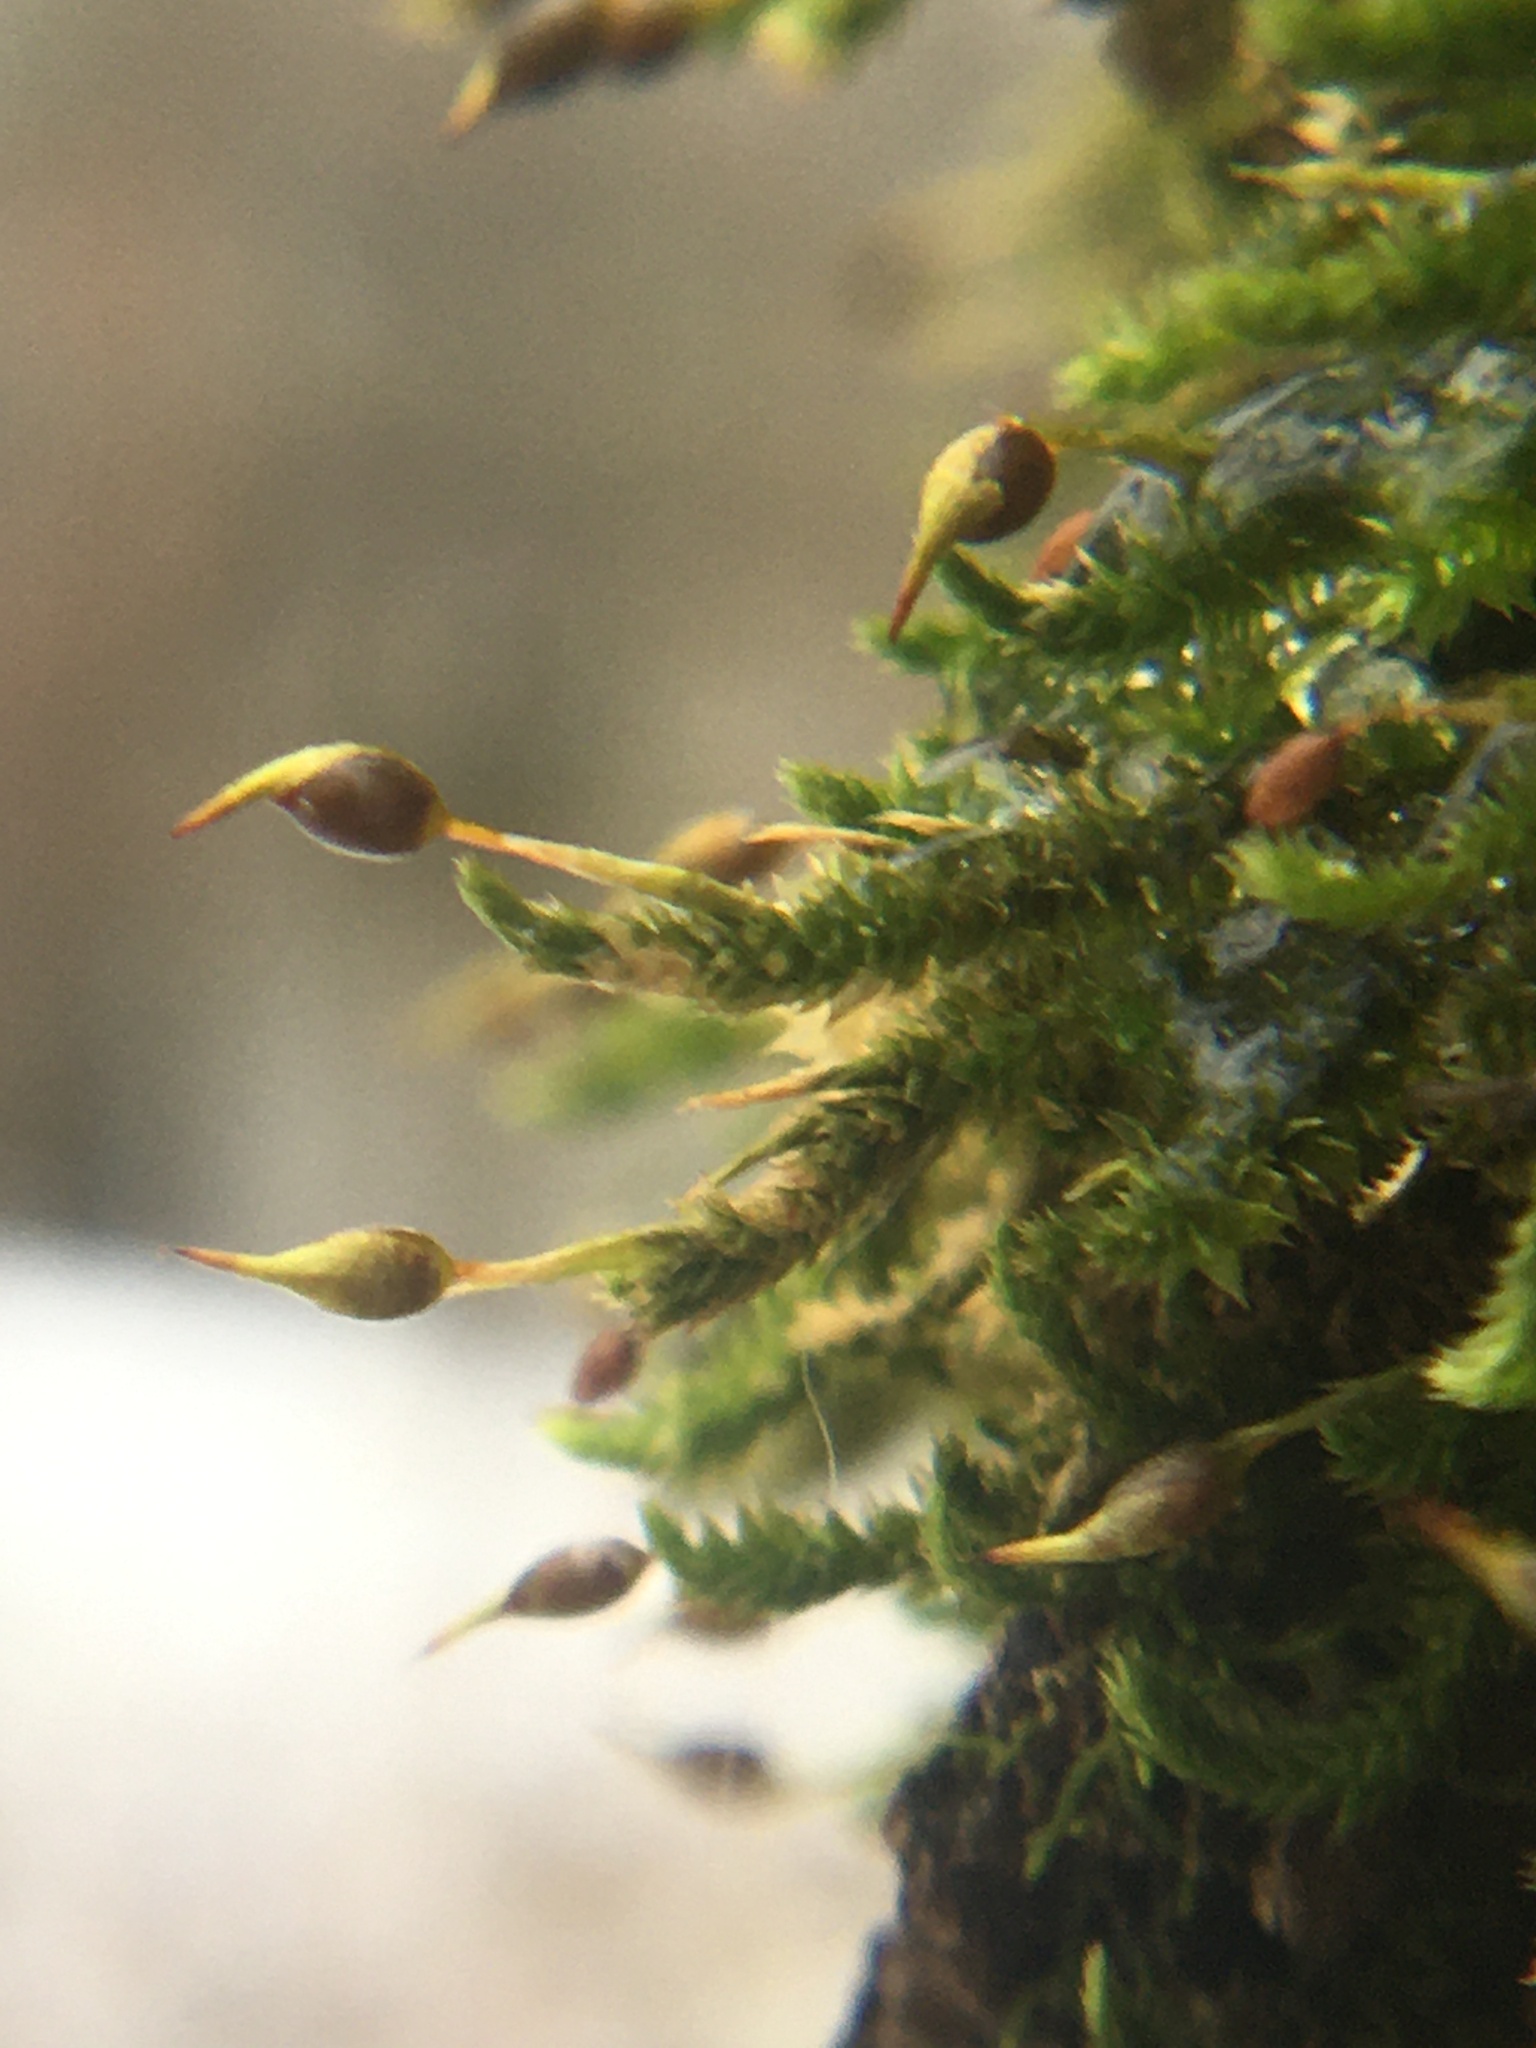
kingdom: Plantae
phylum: Bryophyta
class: Bryopsida
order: Hypnales
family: Leucodontaceae
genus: Leucodon
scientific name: Leucodon julaceus
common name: Smooth hook moss
